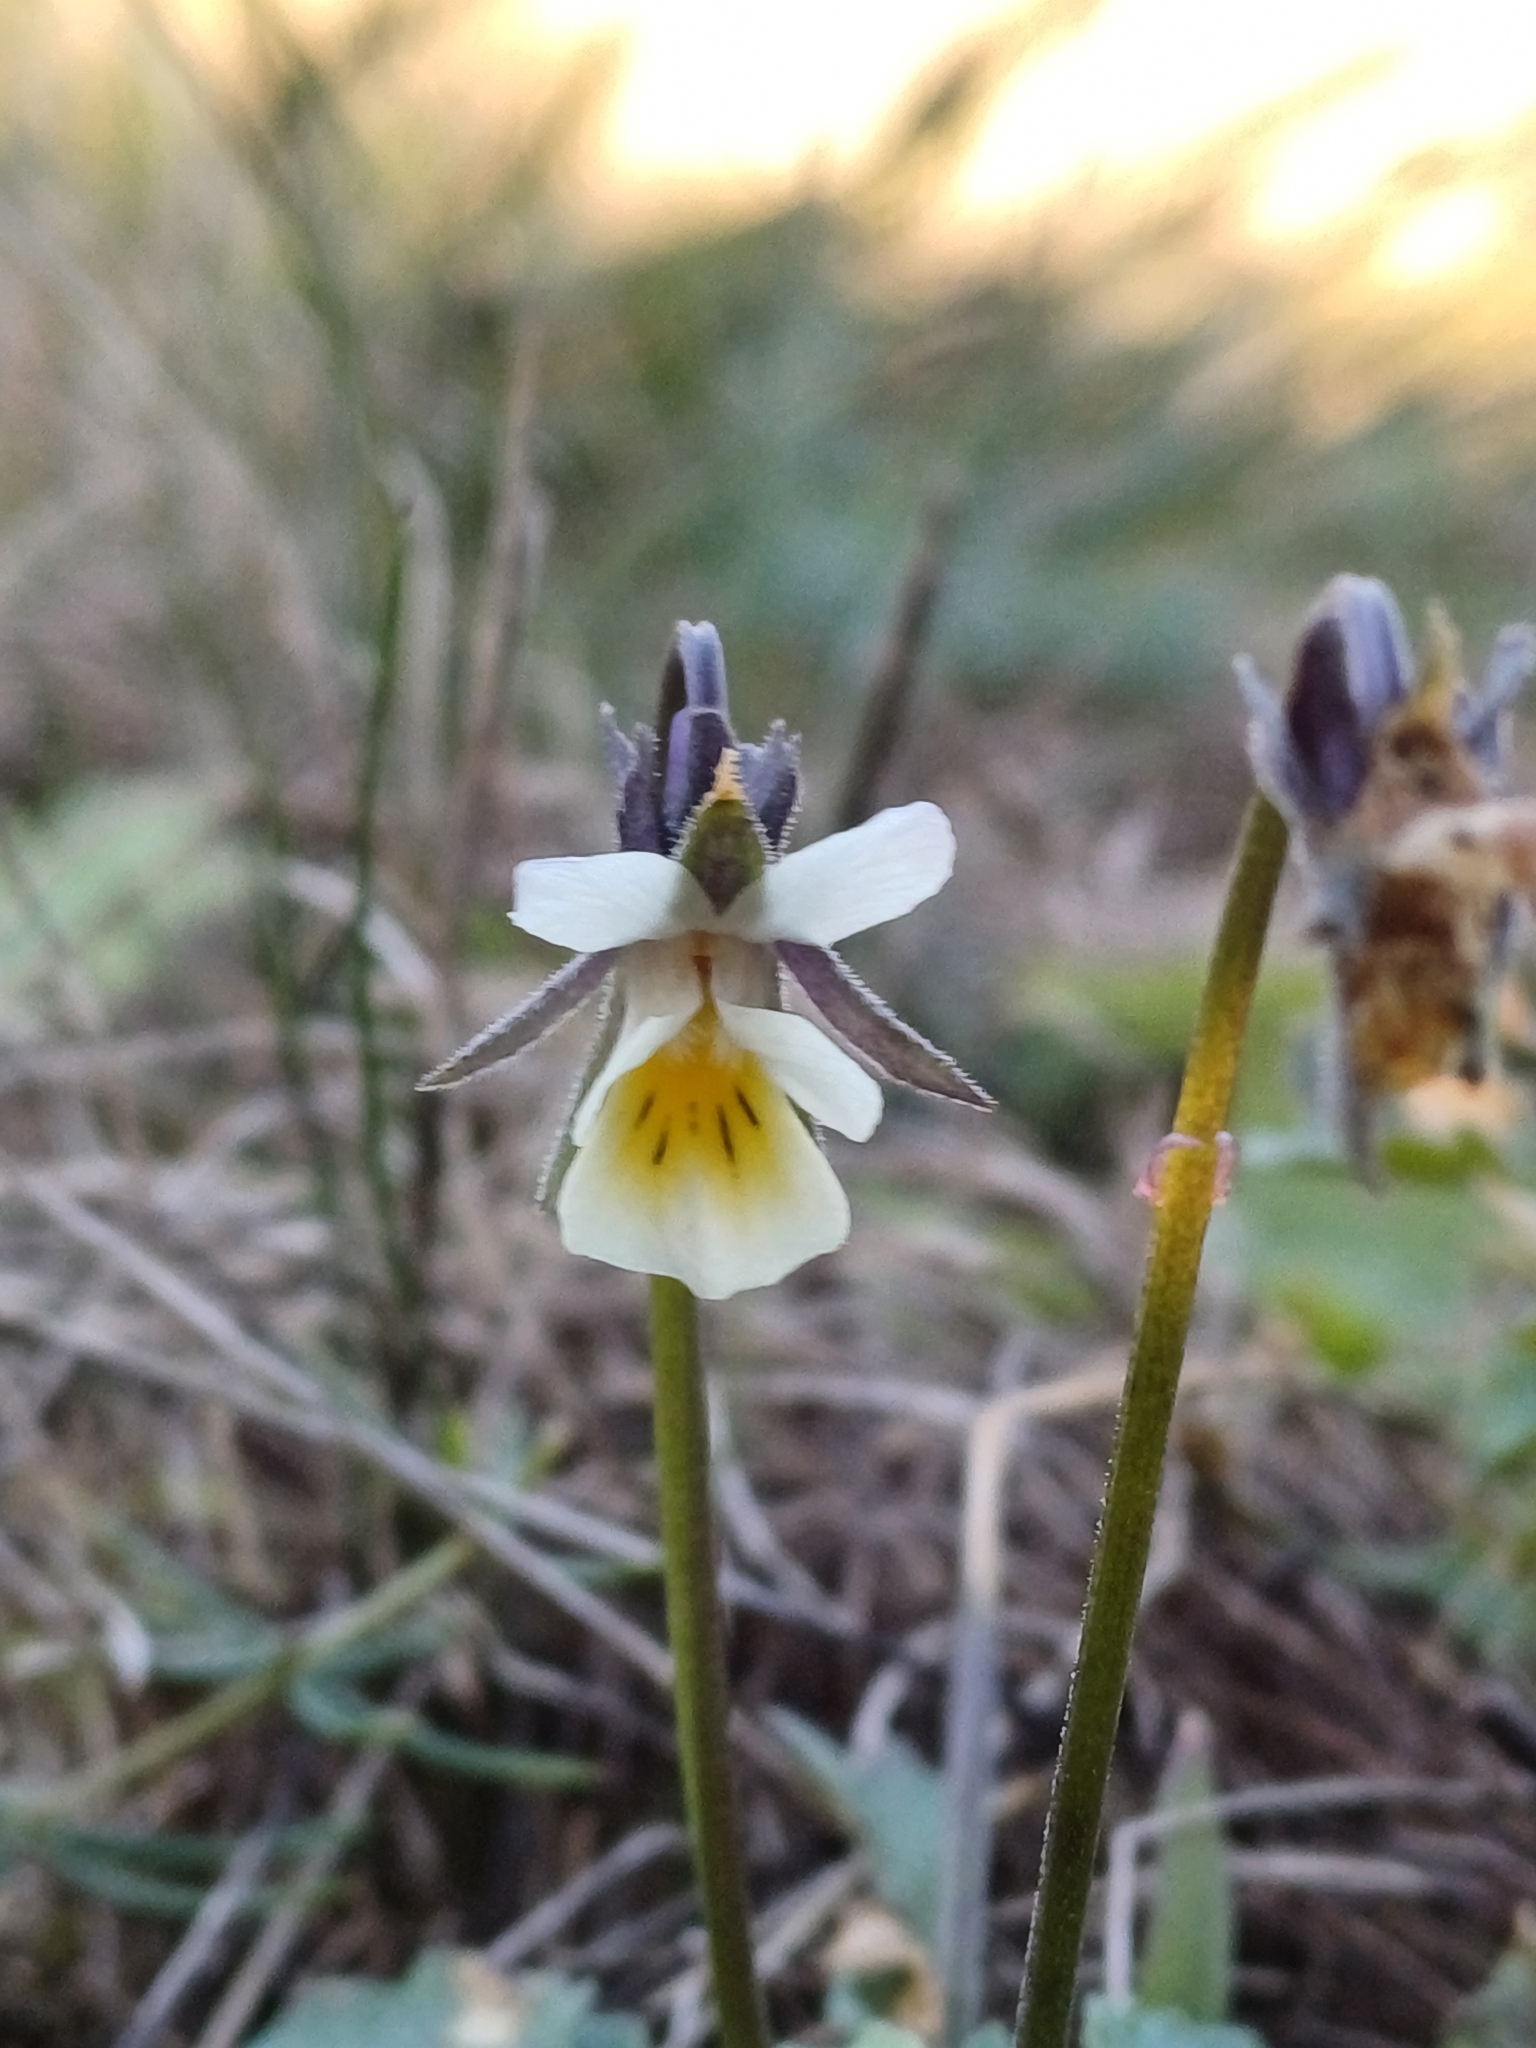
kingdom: Plantae
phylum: Tracheophyta
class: Magnoliopsida
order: Malpighiales
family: Violaceae
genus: Viola
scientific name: Viola arvensis
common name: Field pansy
